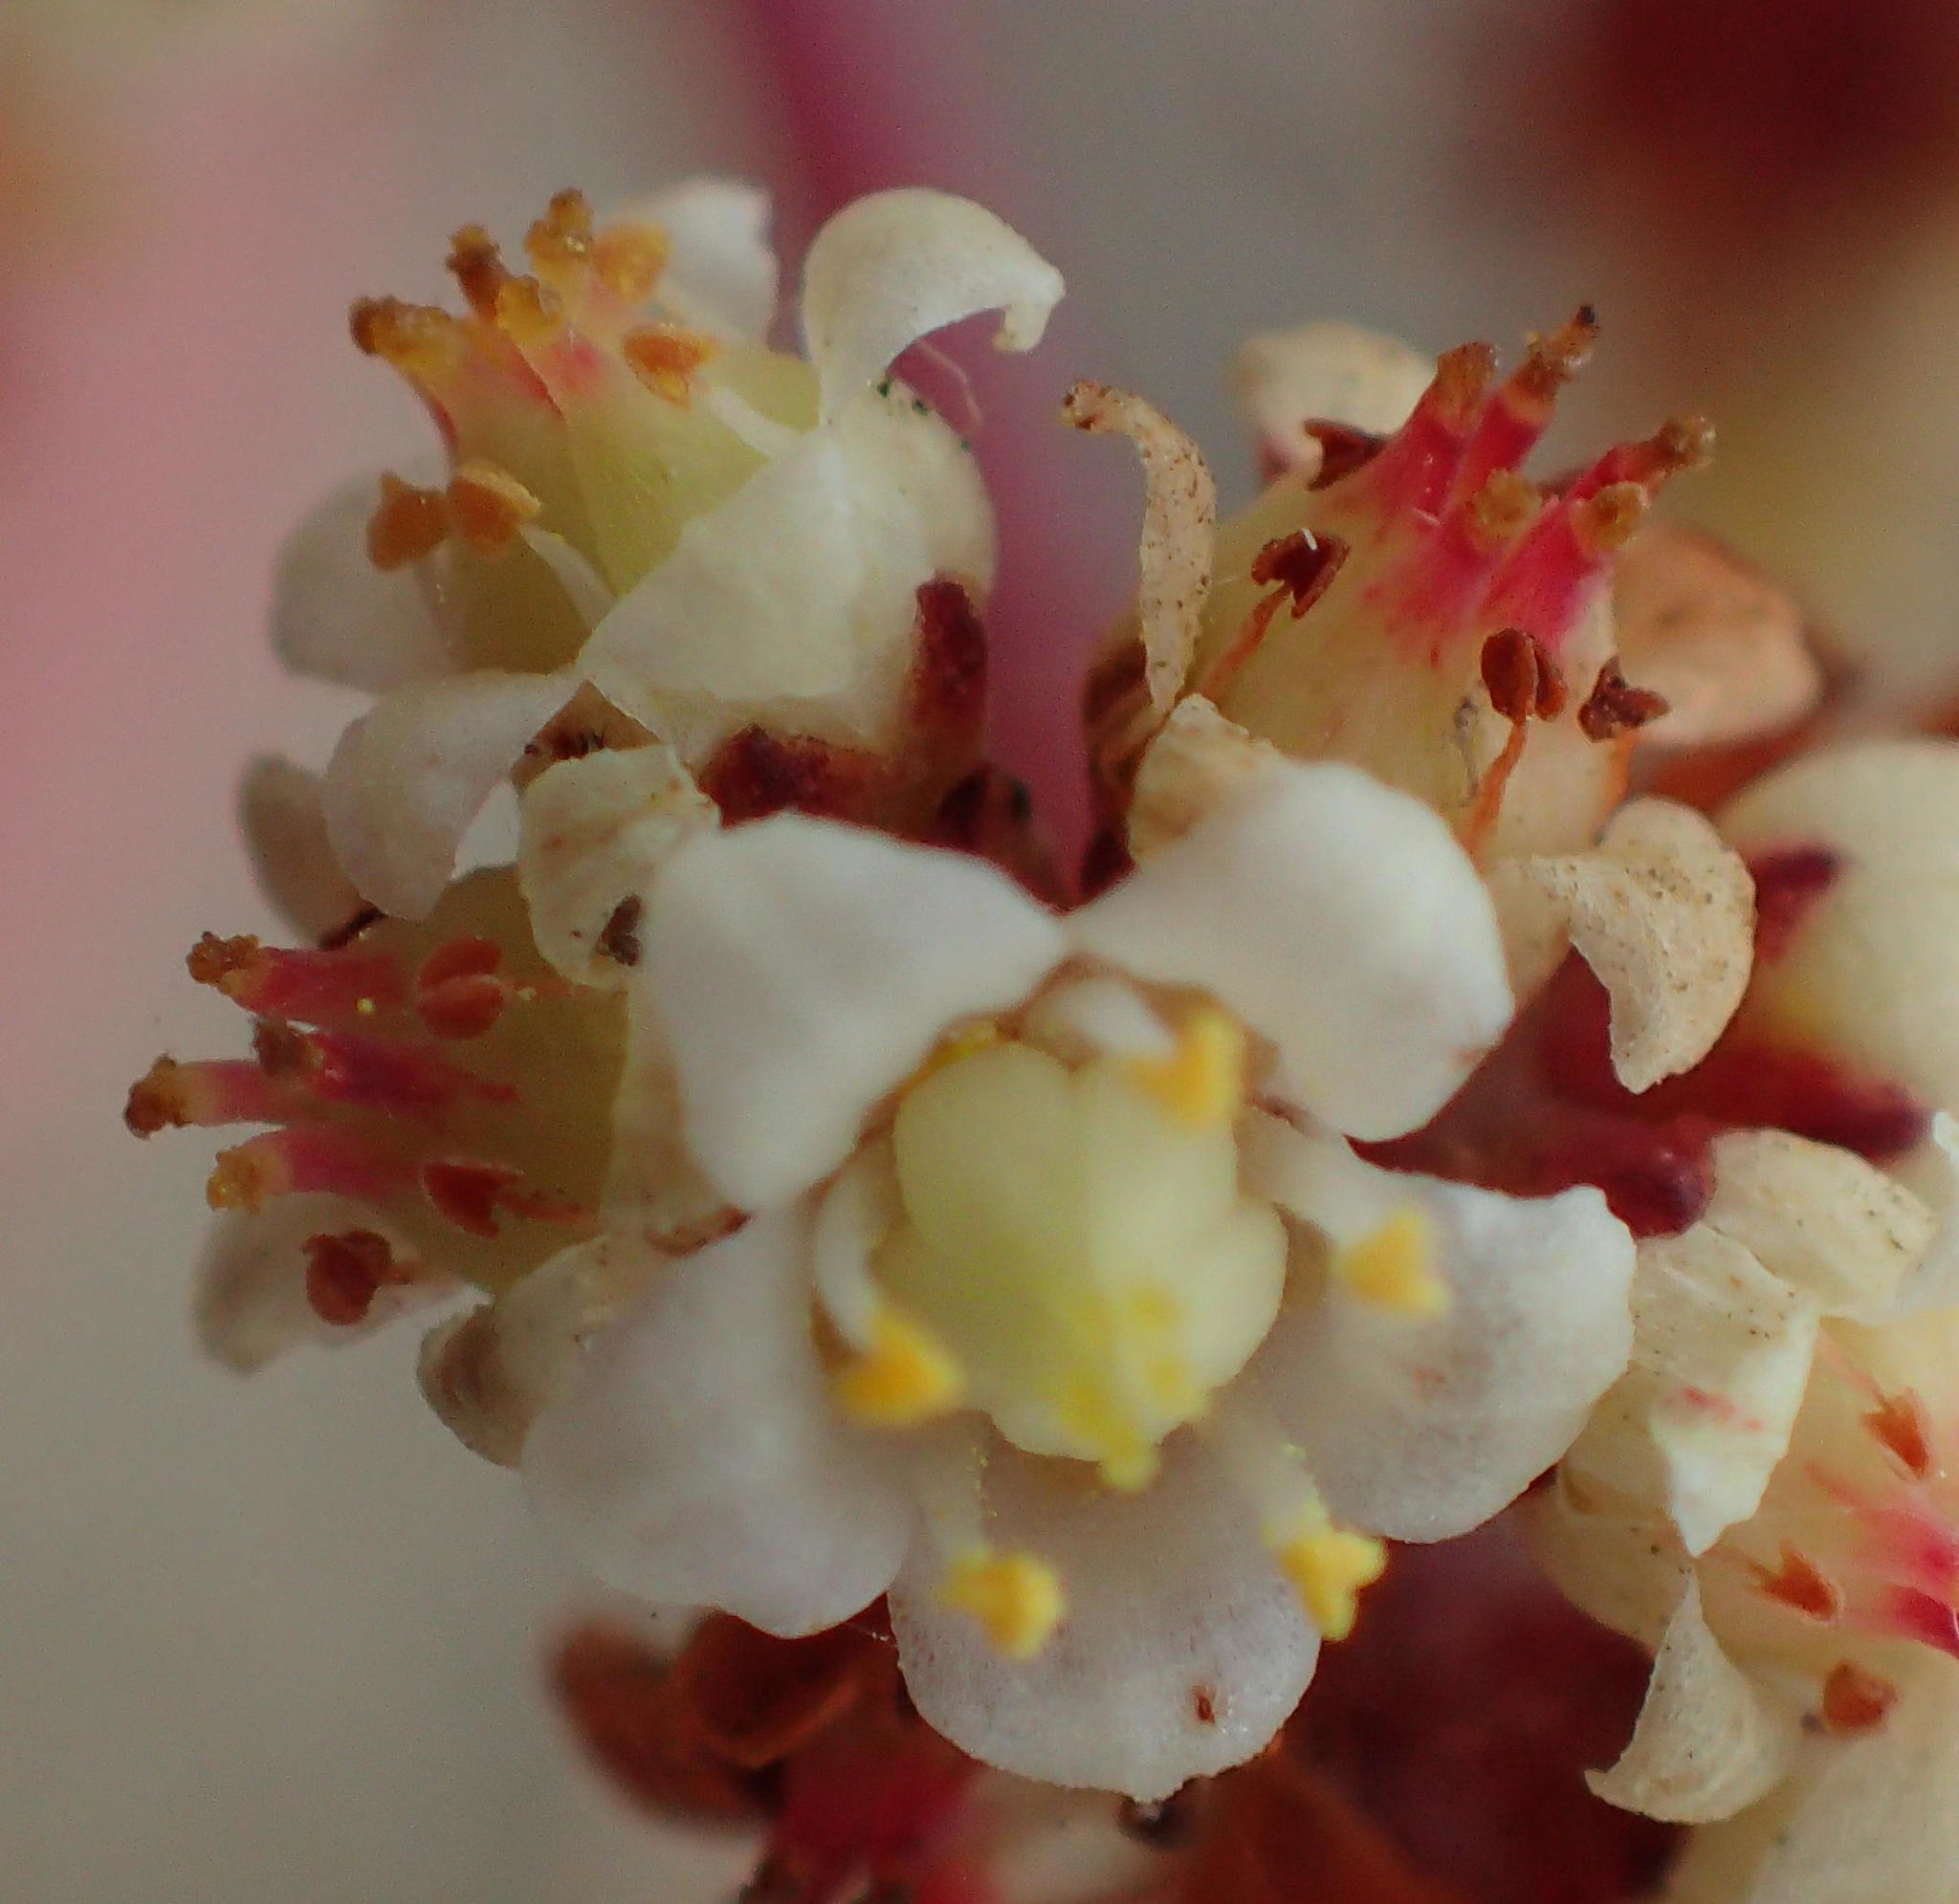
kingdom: Plantae
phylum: Tracheophyta
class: Magnoliopsida
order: Saxifragales
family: Crassulaceae
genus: Crassula
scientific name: Crassula perforata
